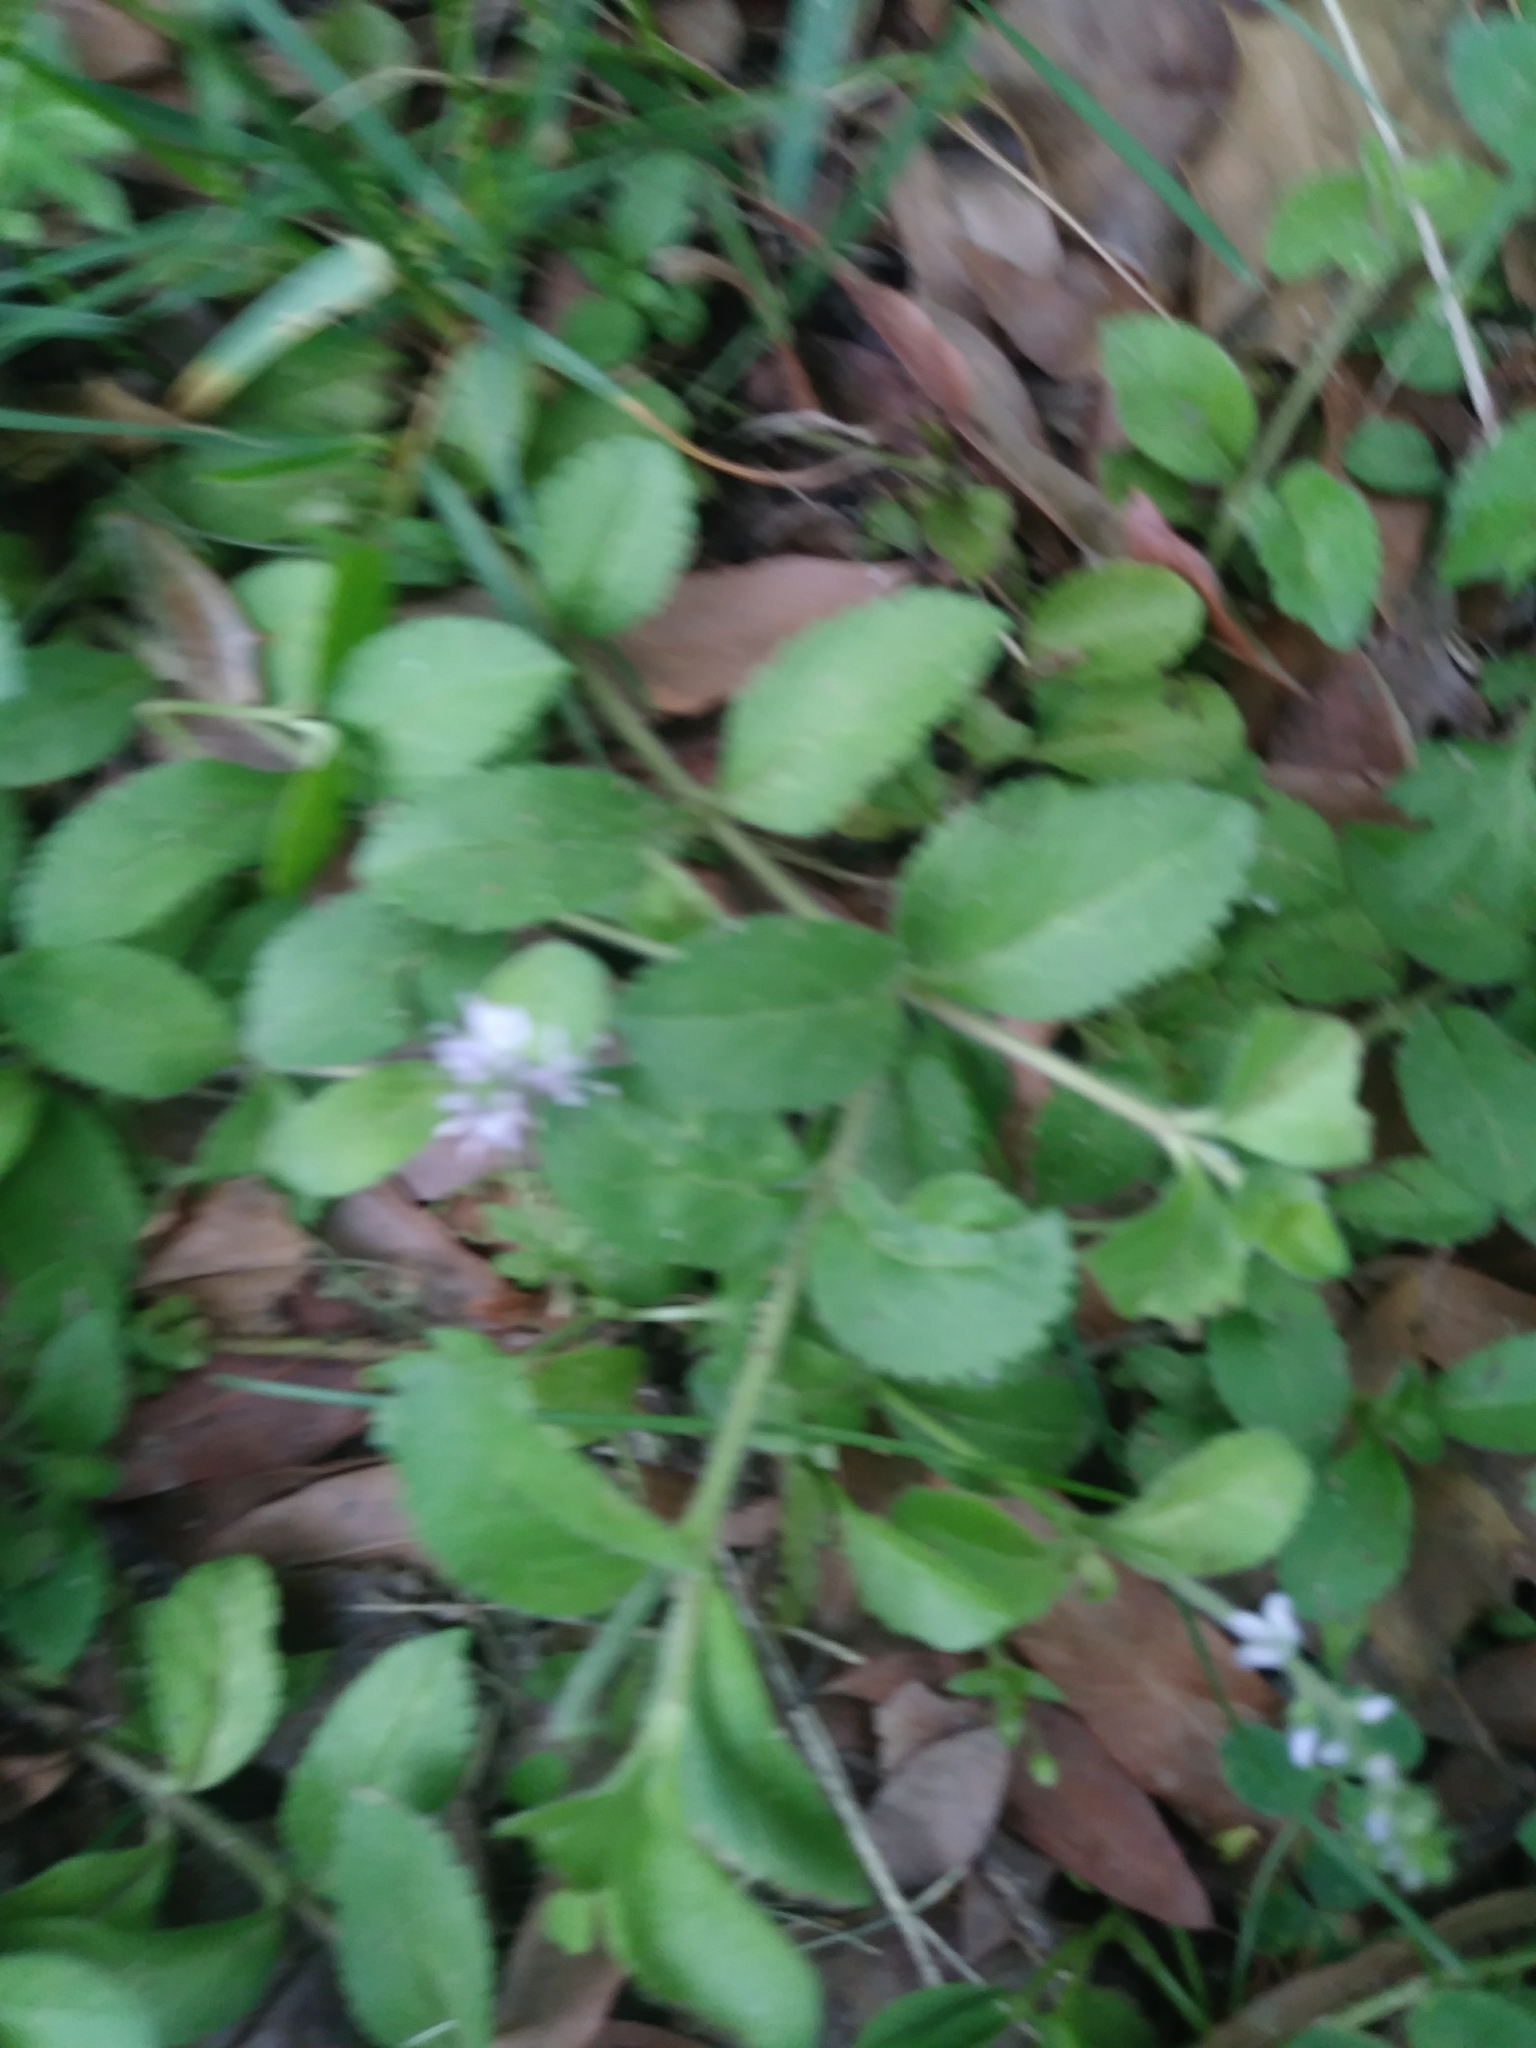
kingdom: Plantae
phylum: Tracheophyta
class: Magnoliopsida
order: Lamiales
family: Plantaginaceae
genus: Veronica
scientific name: Veronica officinalis
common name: Common speedwell
